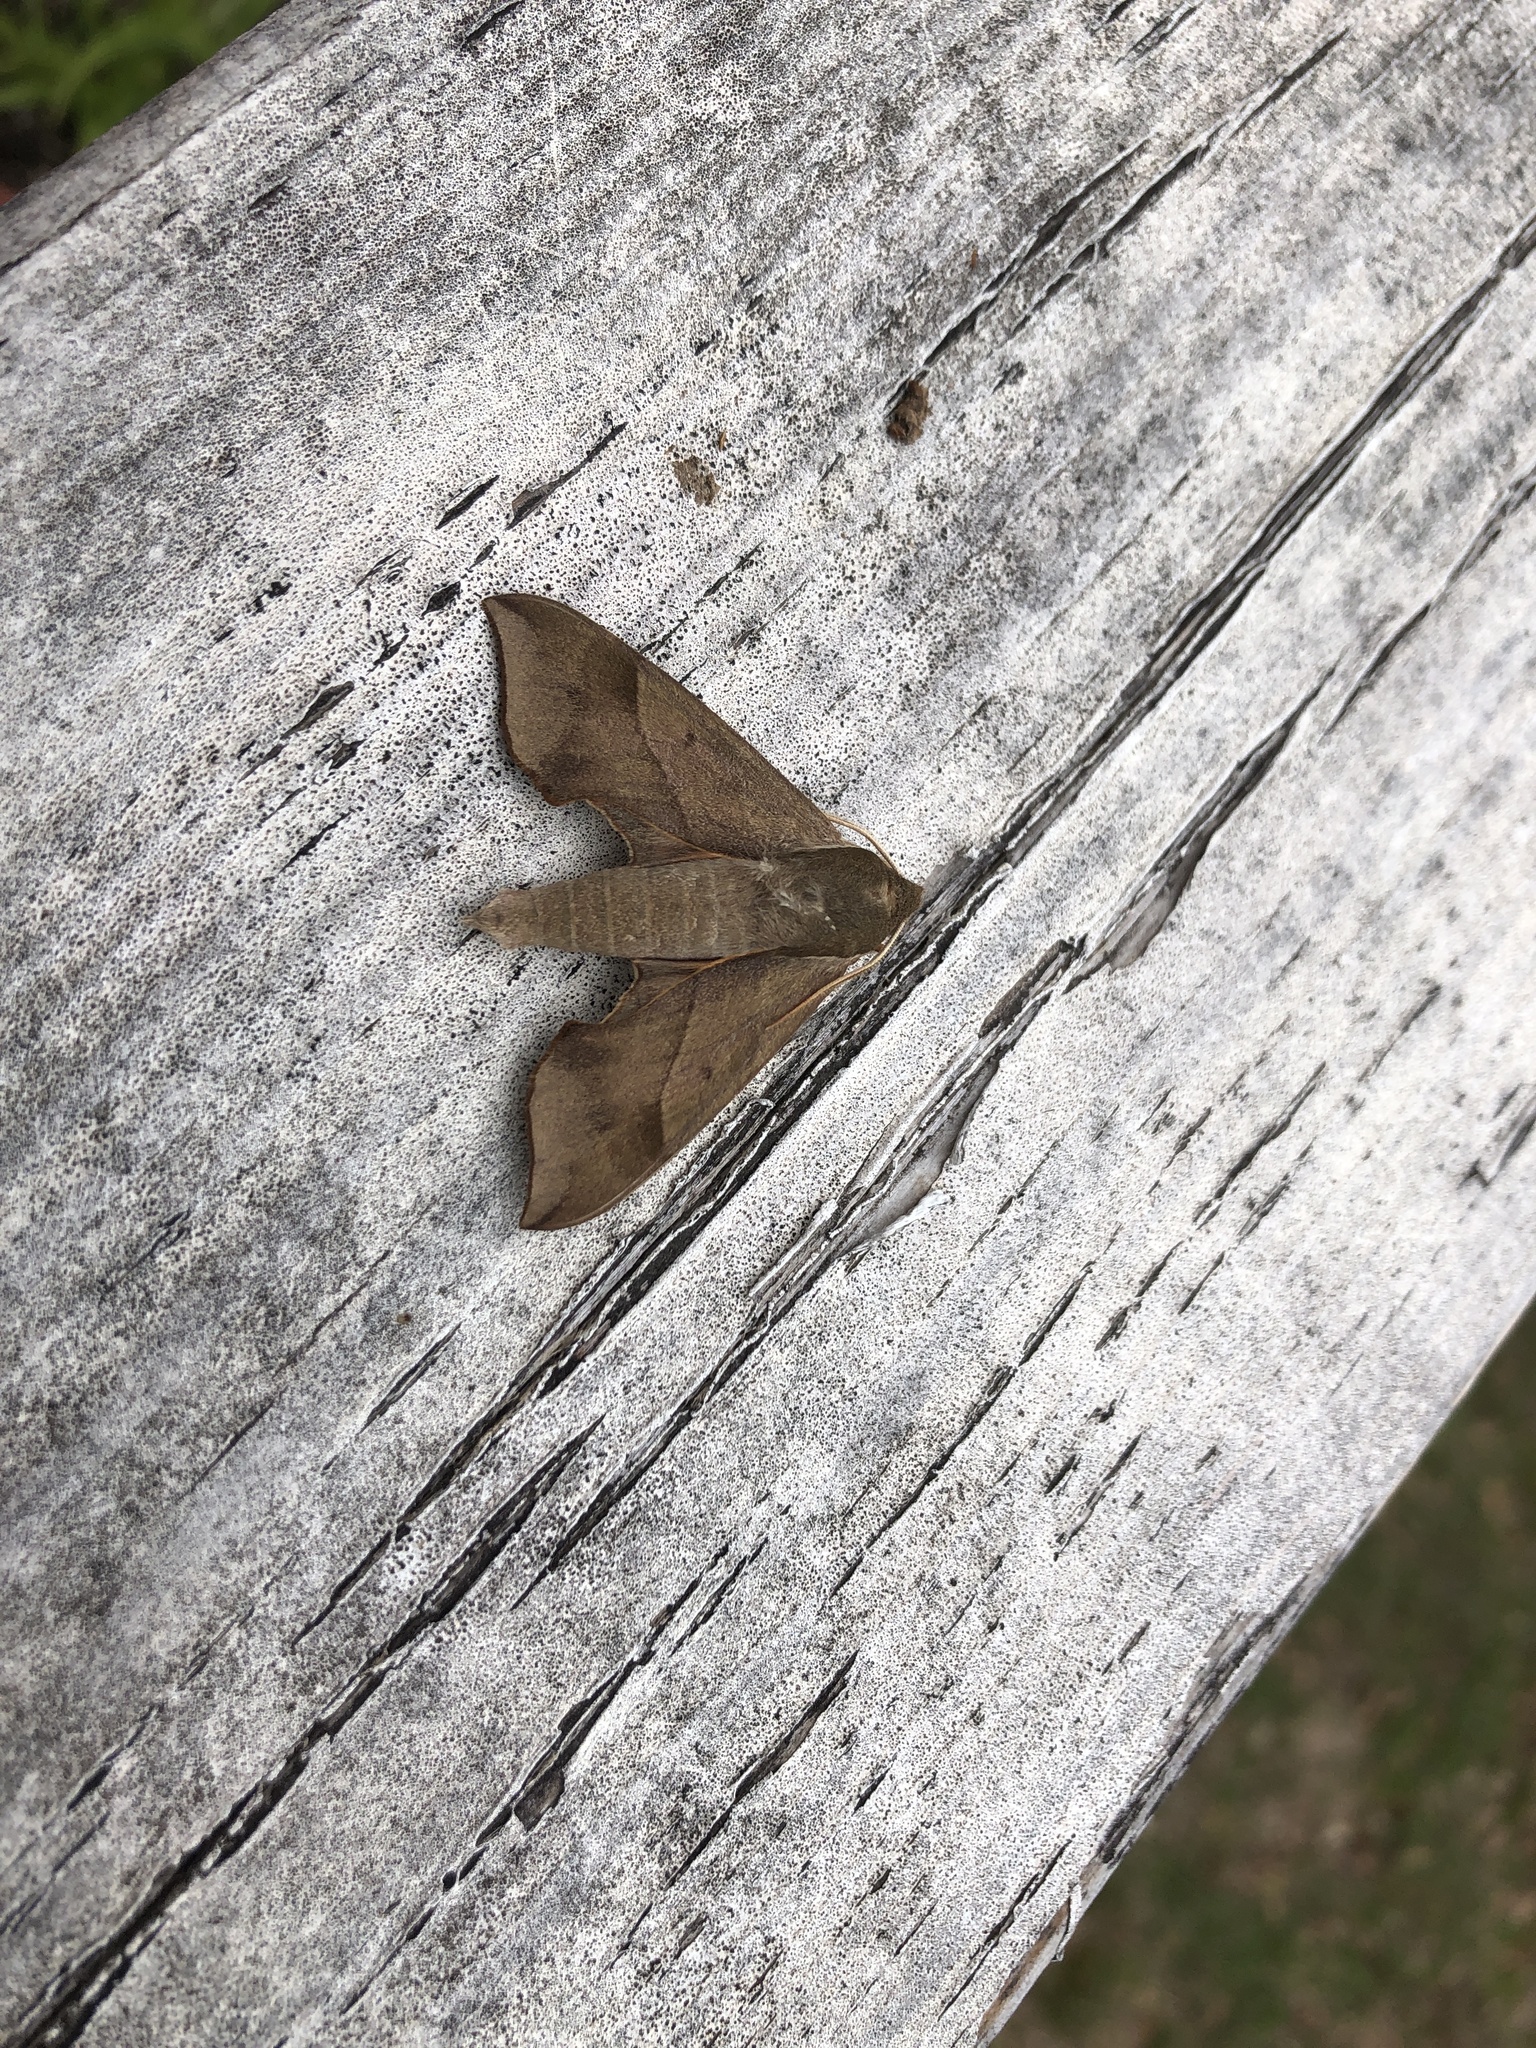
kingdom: Animalia
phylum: Arthropoda
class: Insecta
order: Lepidoptera
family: Sphingidae
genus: Darapsa
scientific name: Darapsa myron
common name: Hog sphinx
